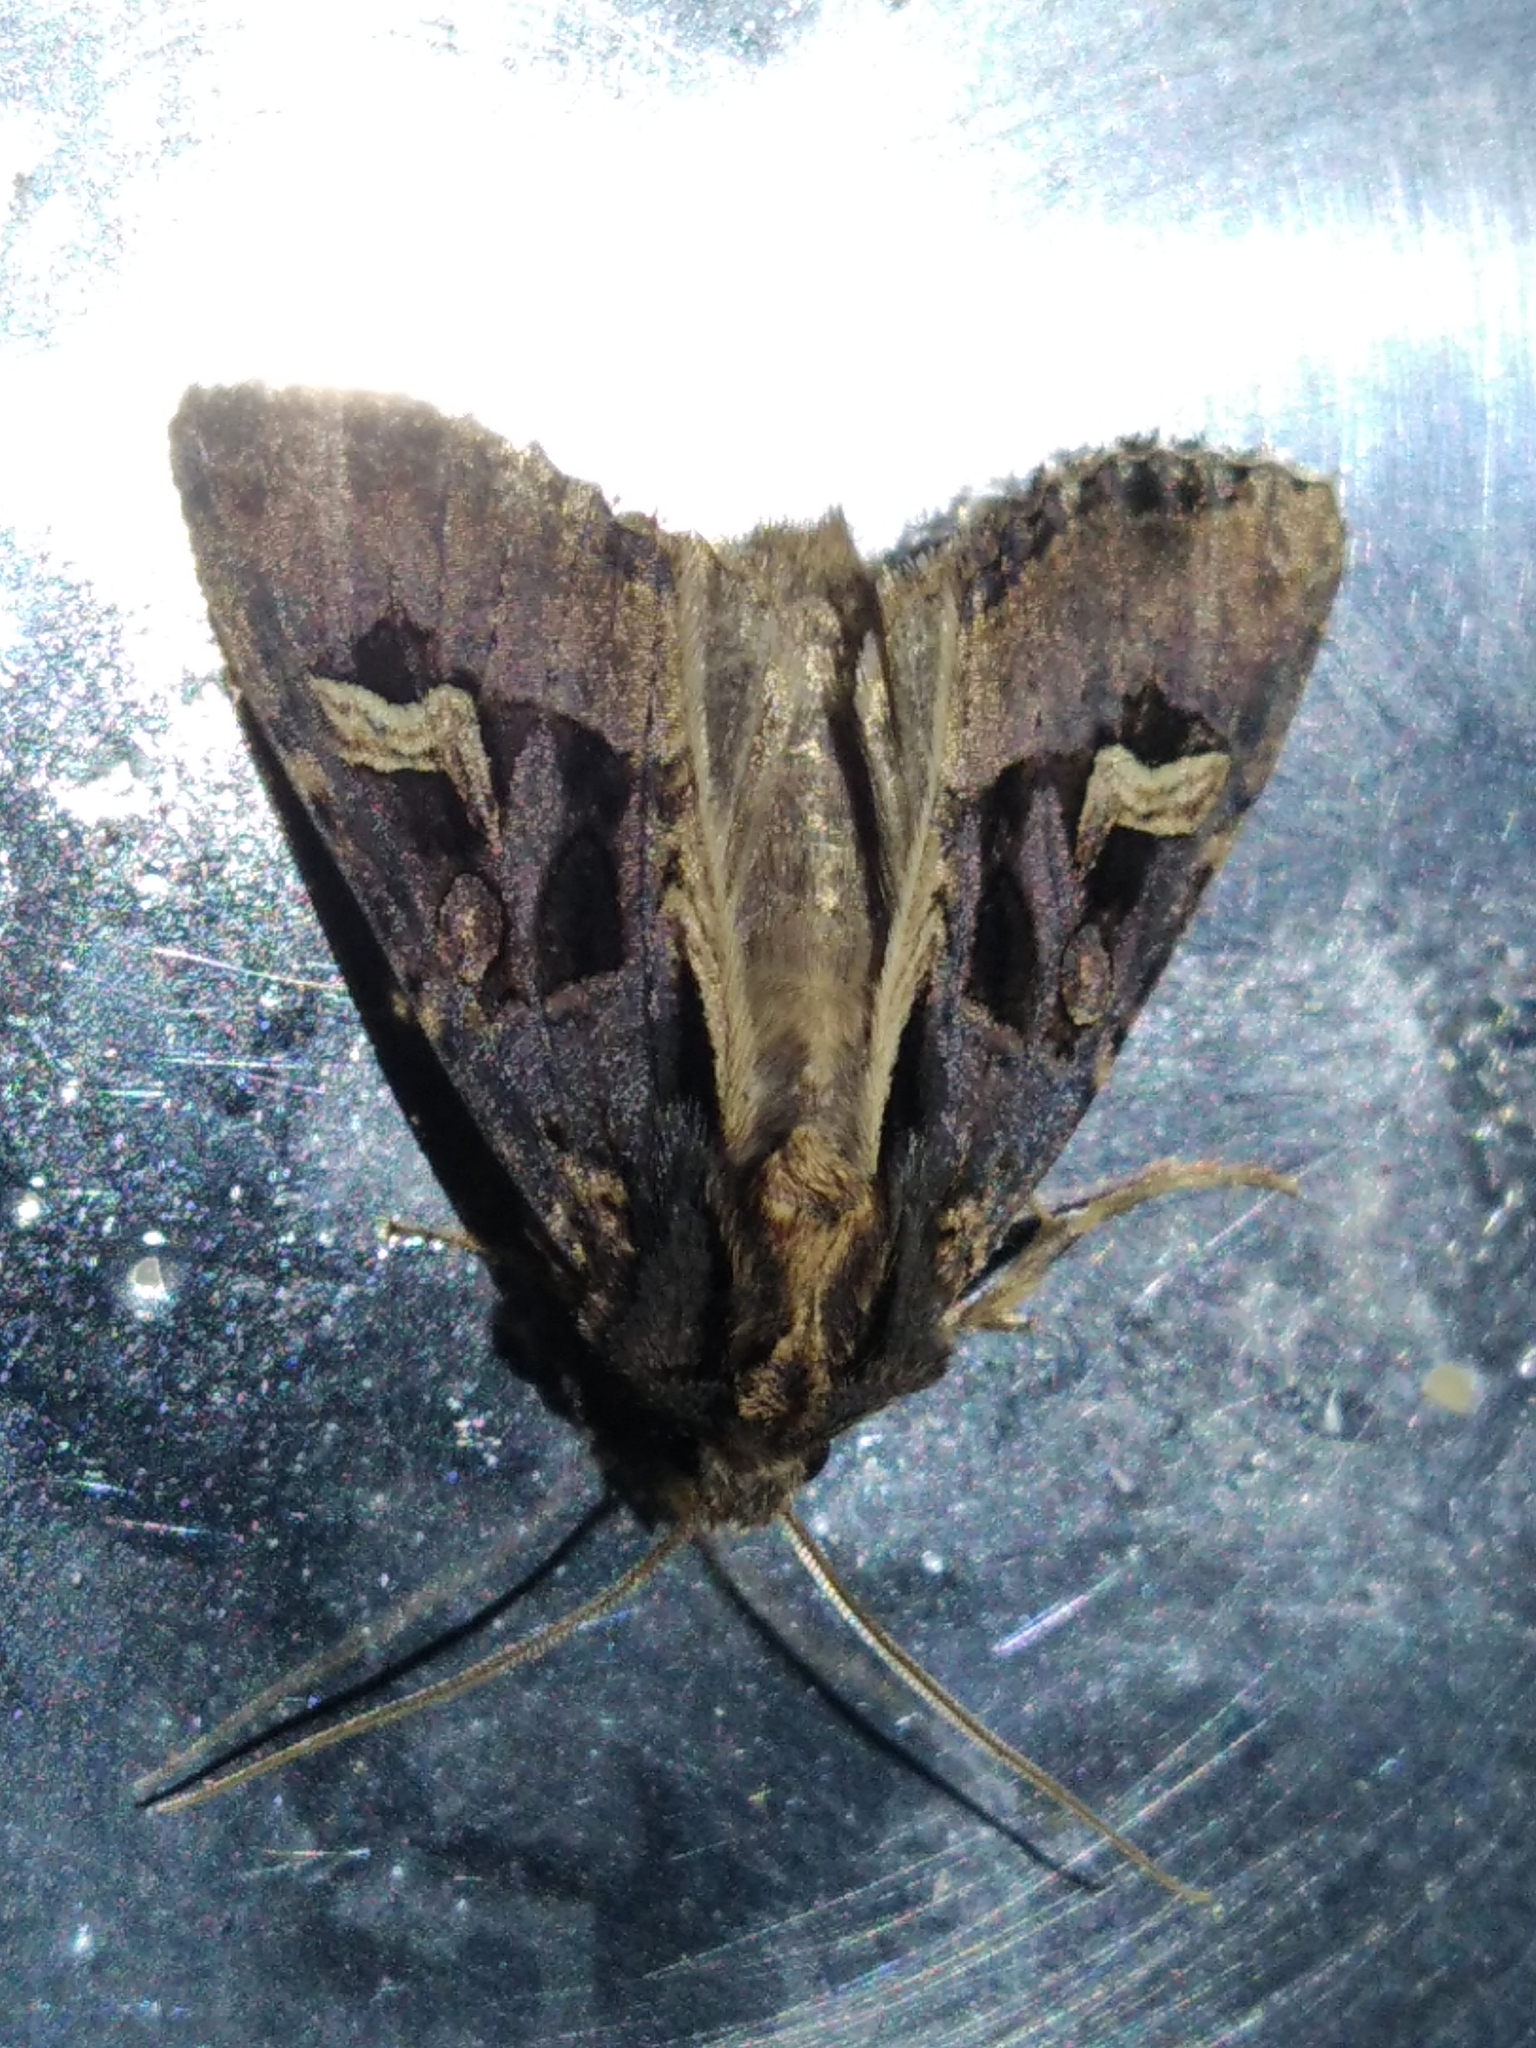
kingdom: Animalia
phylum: Arthropoda
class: Insecta
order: Lepidoptera
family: Noctuidae
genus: Trigonophora
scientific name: Trigonophora flammea
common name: Flame brocade
